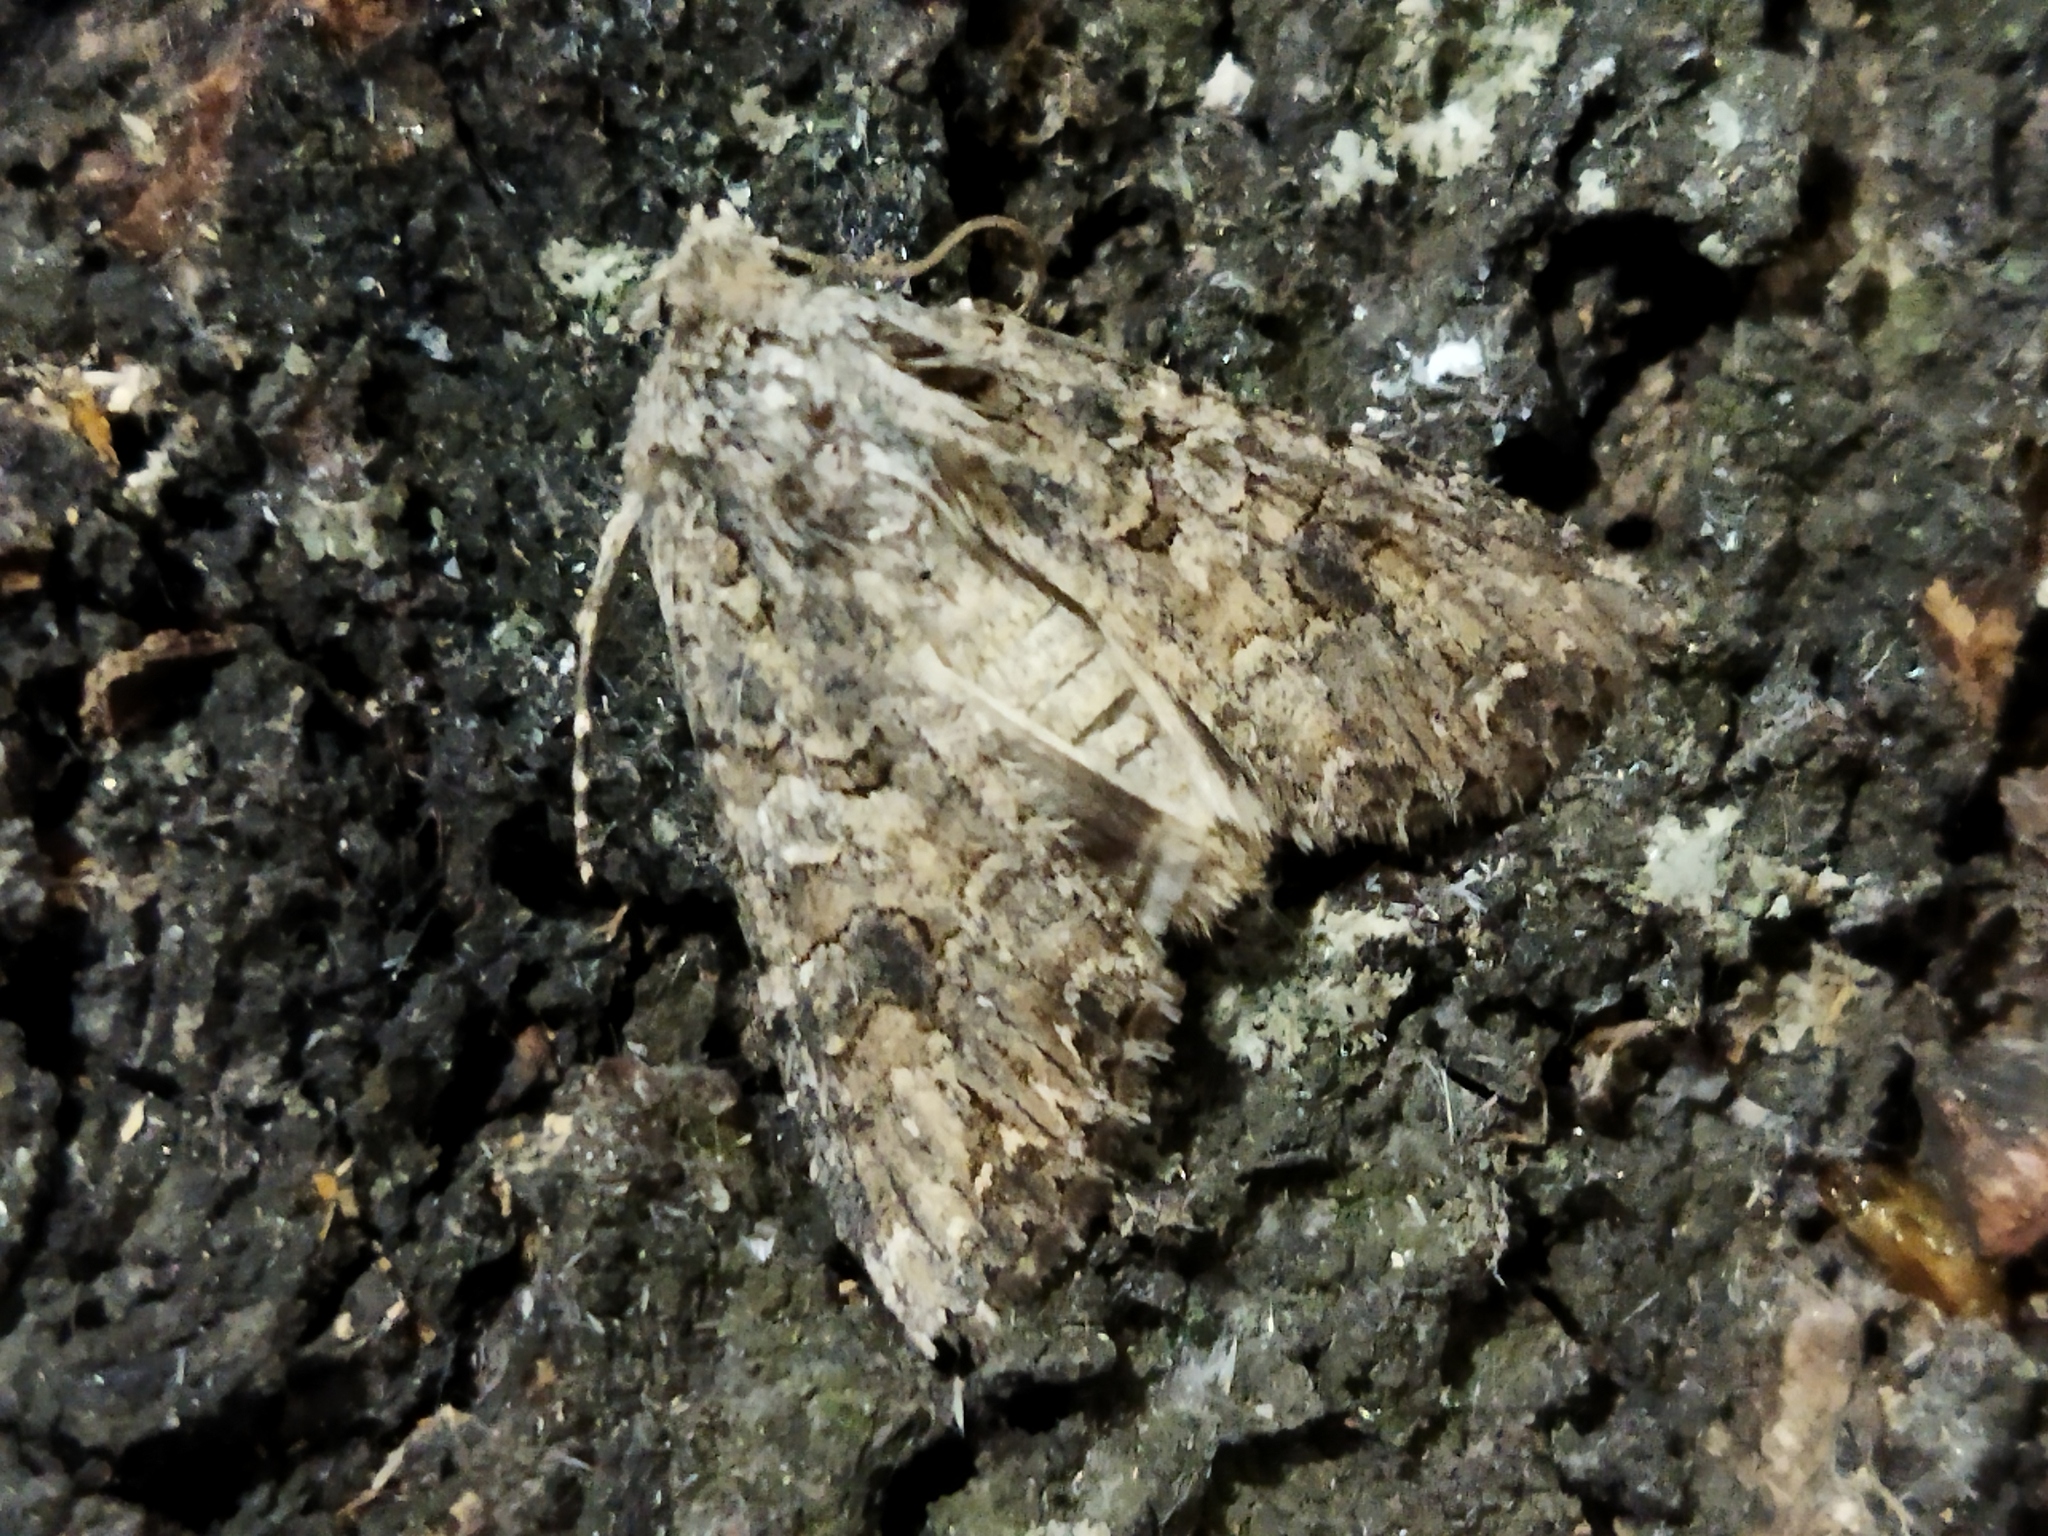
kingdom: Animalia
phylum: Arthropoda
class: Insecta
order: Lepidoptera
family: Noctuidae
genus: Anarta
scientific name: Anarta trifolii
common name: Clover cutworm moth
